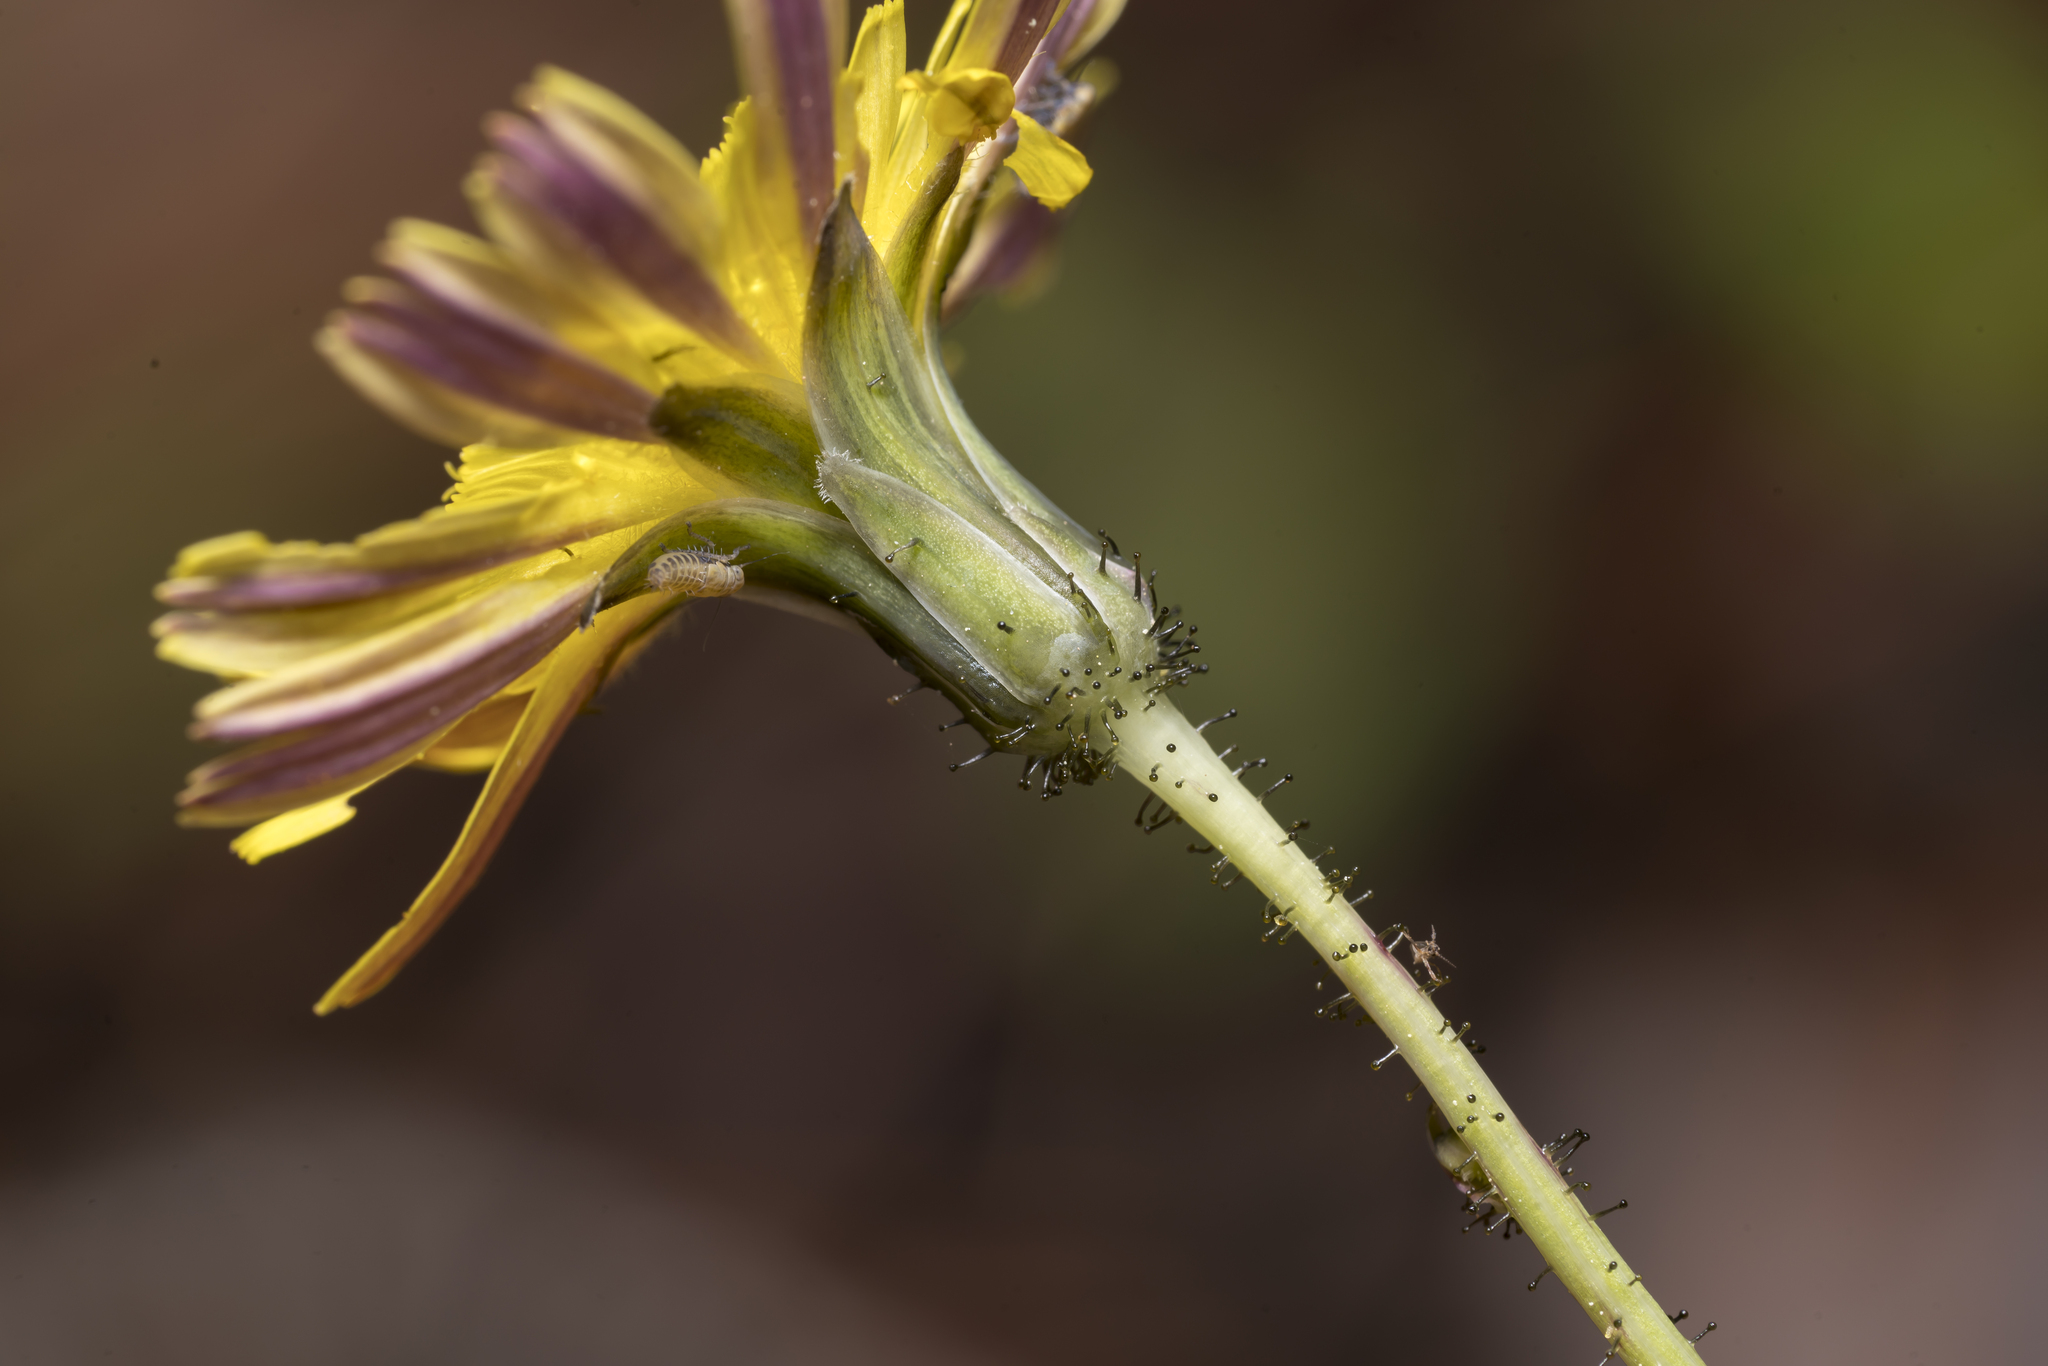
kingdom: Plantae
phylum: Tracheophyta
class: Magnoliopsida
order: Asterales
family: Asteraceae
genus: Aetheorhiza
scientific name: Aetheorhiza bulbosa
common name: Tuberous hawk's-beard
